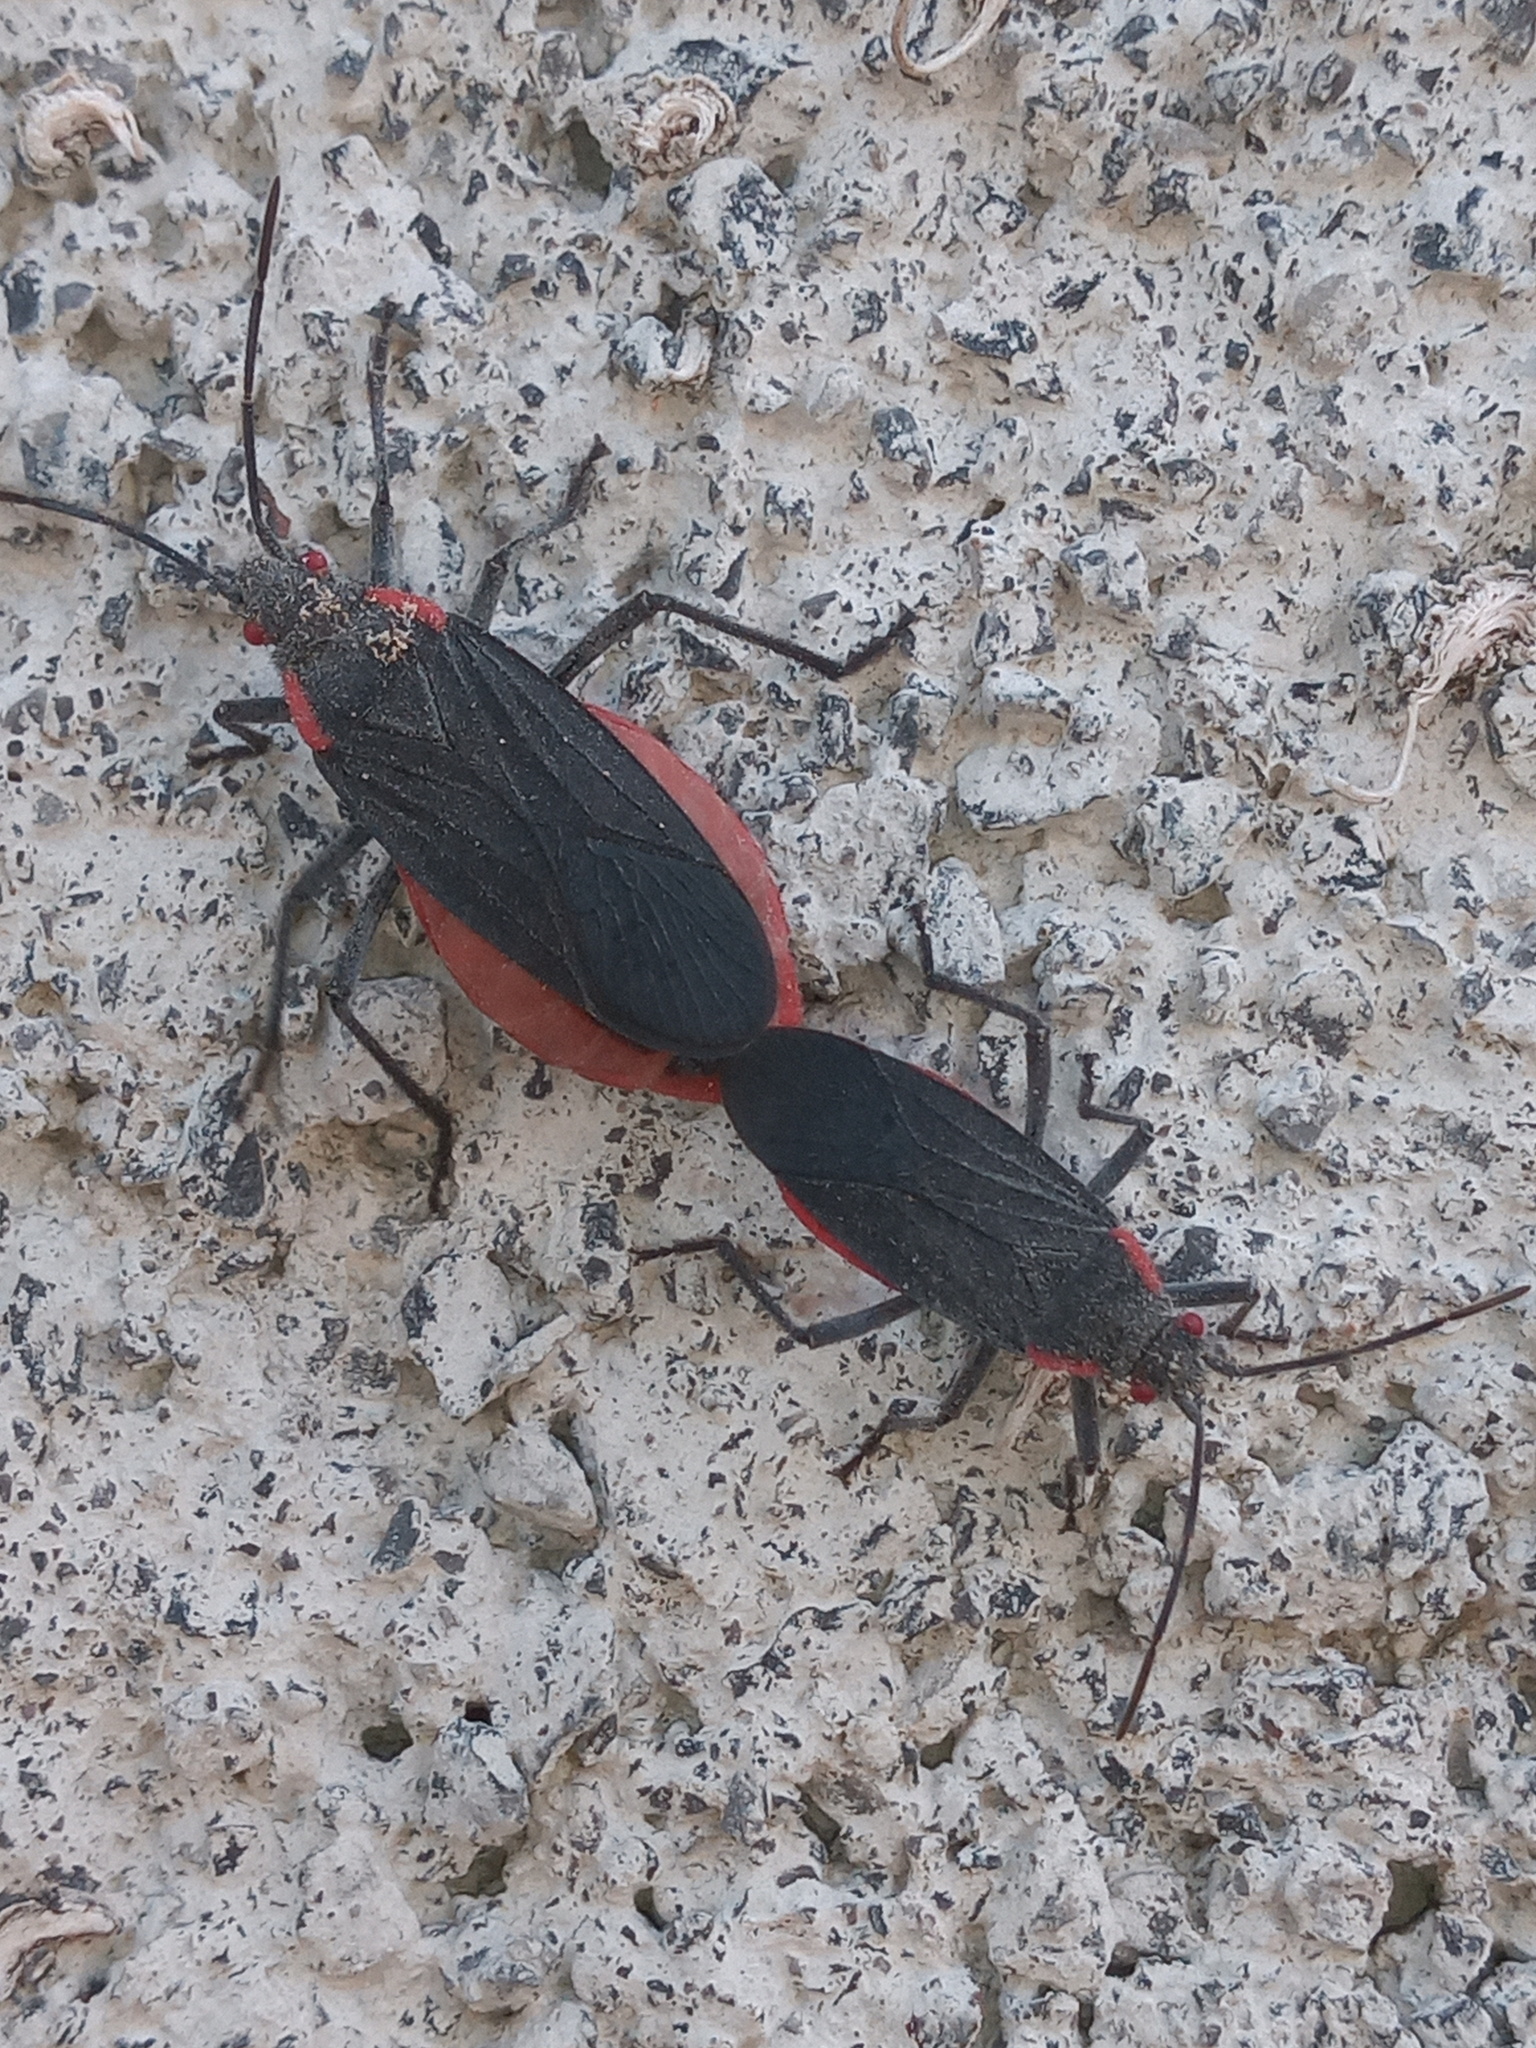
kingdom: Animalia
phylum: Arthropoda
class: Insecta
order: Hemiptera
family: Rhopalidae
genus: Jadera
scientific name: Jadera haematoloma
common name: Red-shouldered bug
